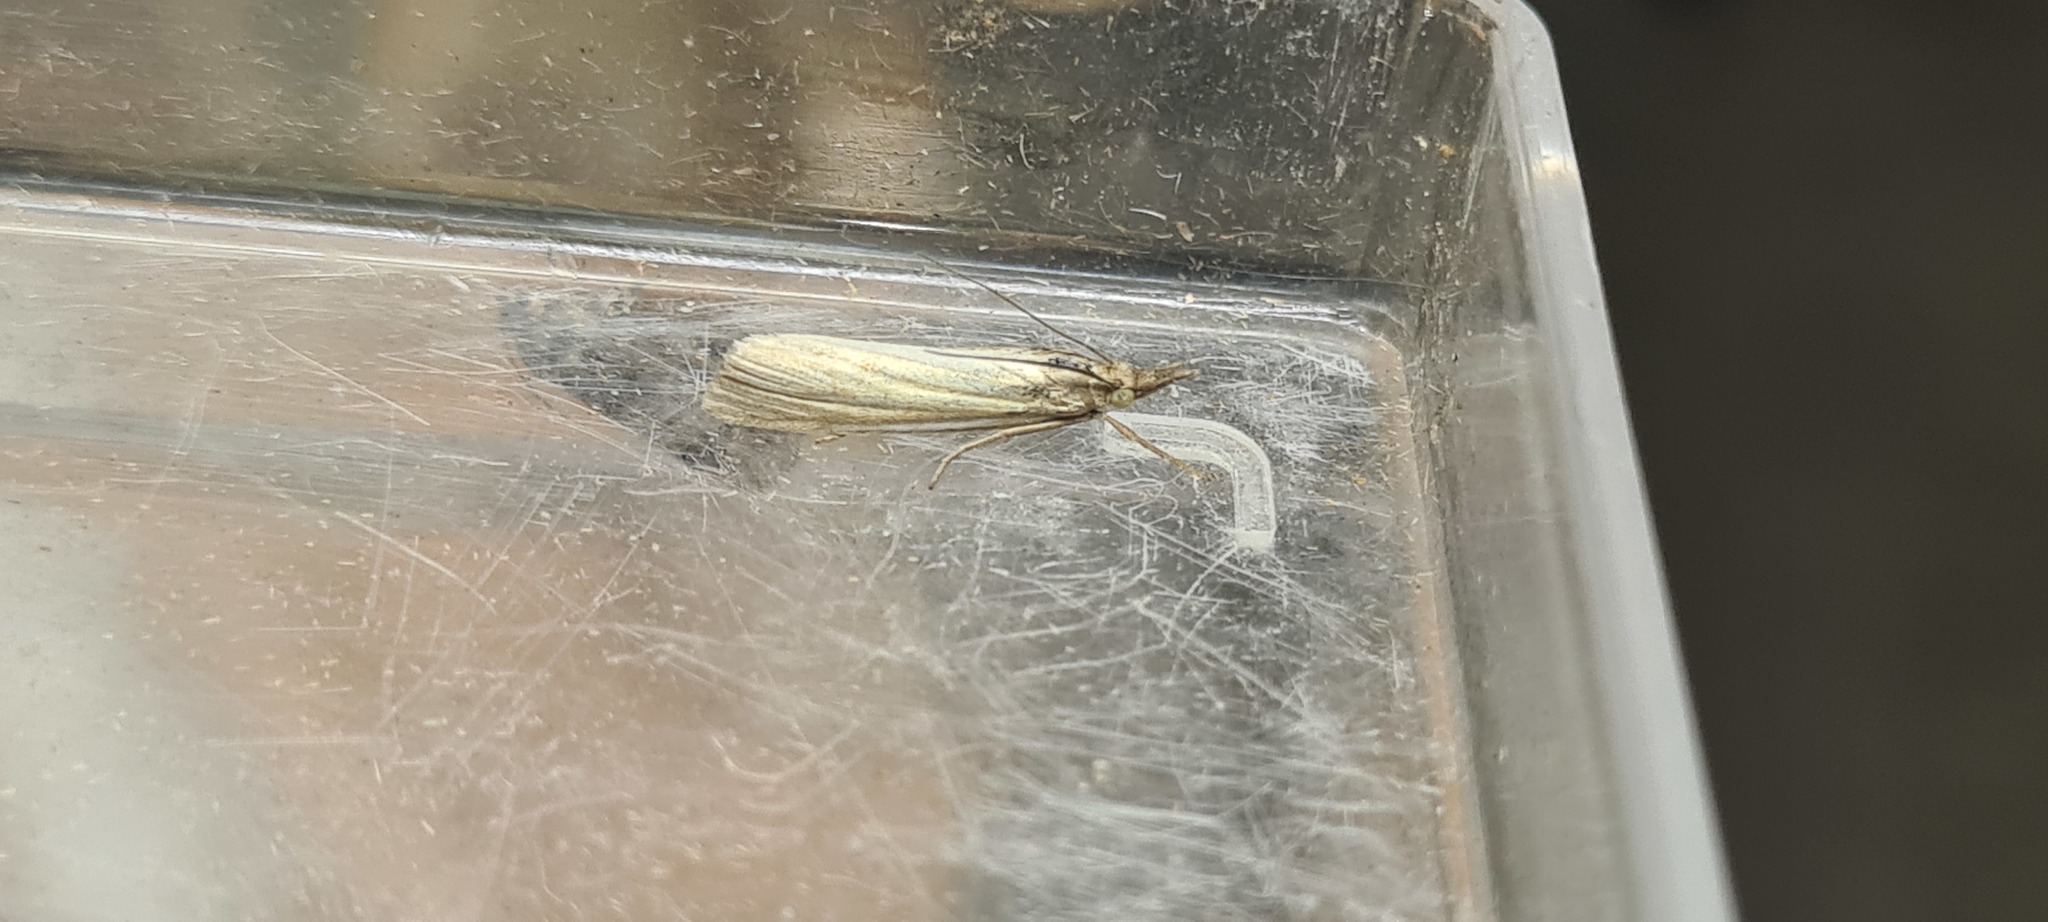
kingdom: Animalia
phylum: Arthropoda
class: Insecta
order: Lepidoptera
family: Crambidae
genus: Crambus
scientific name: Crambus perlellus
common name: Yellow satin veneer
